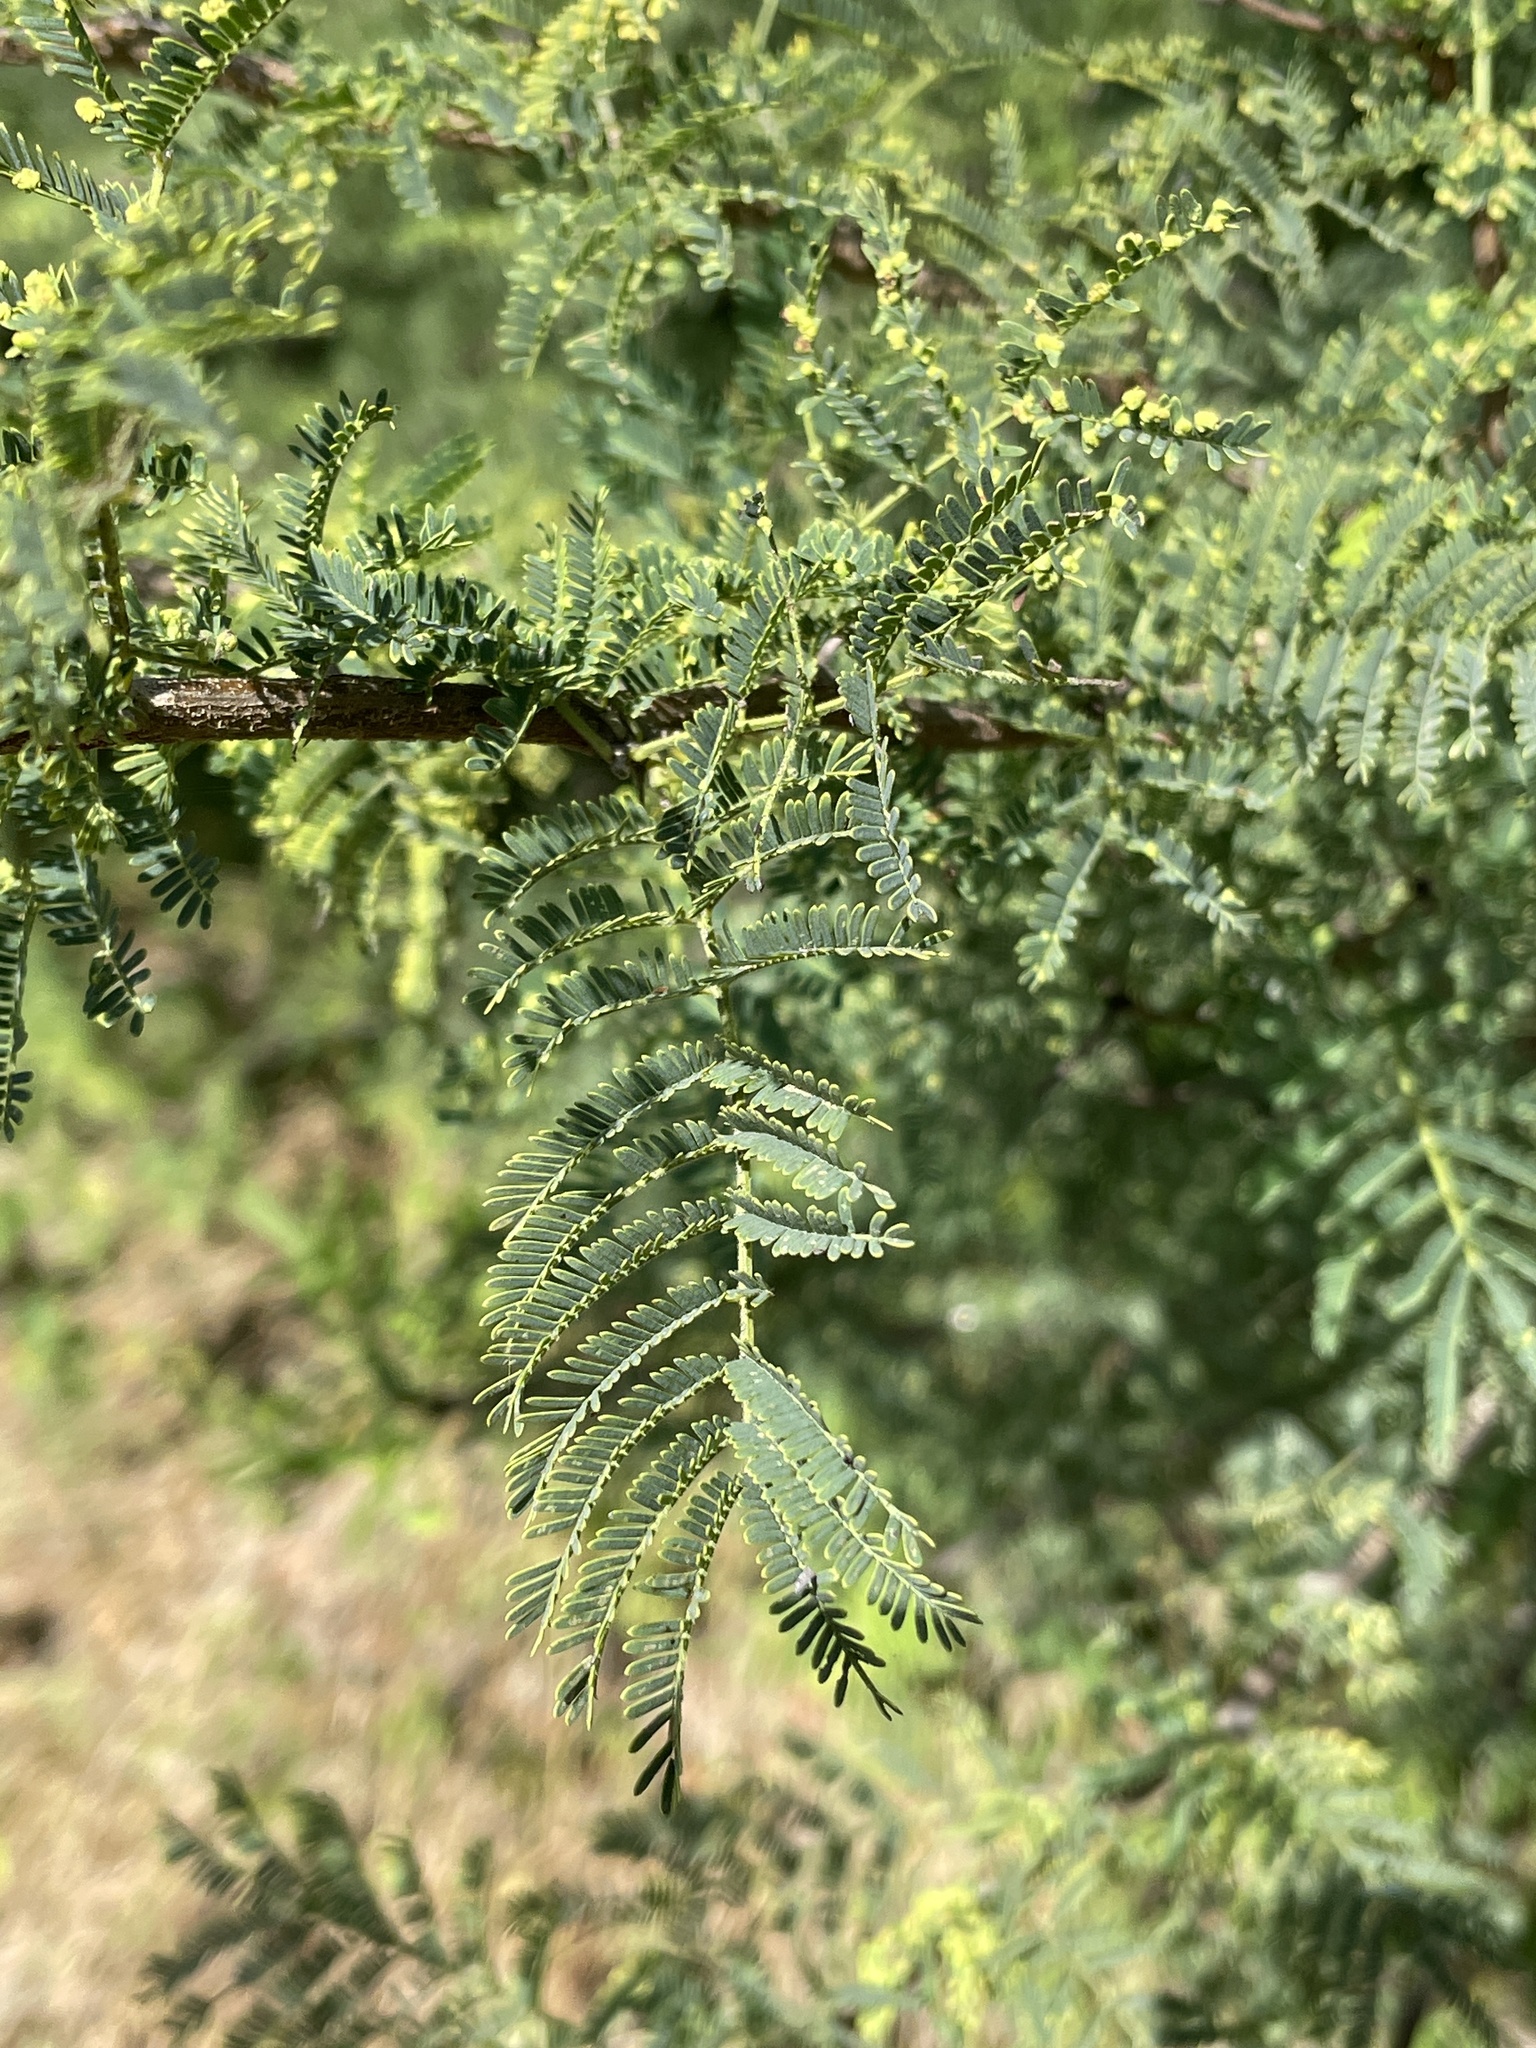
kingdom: Plantae
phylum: Tracheophyta
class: Magnoliopsida
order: Fabales
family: Fabaceae
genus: Vachellia
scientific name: Vachellia nilotica
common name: Arabic gumtree
